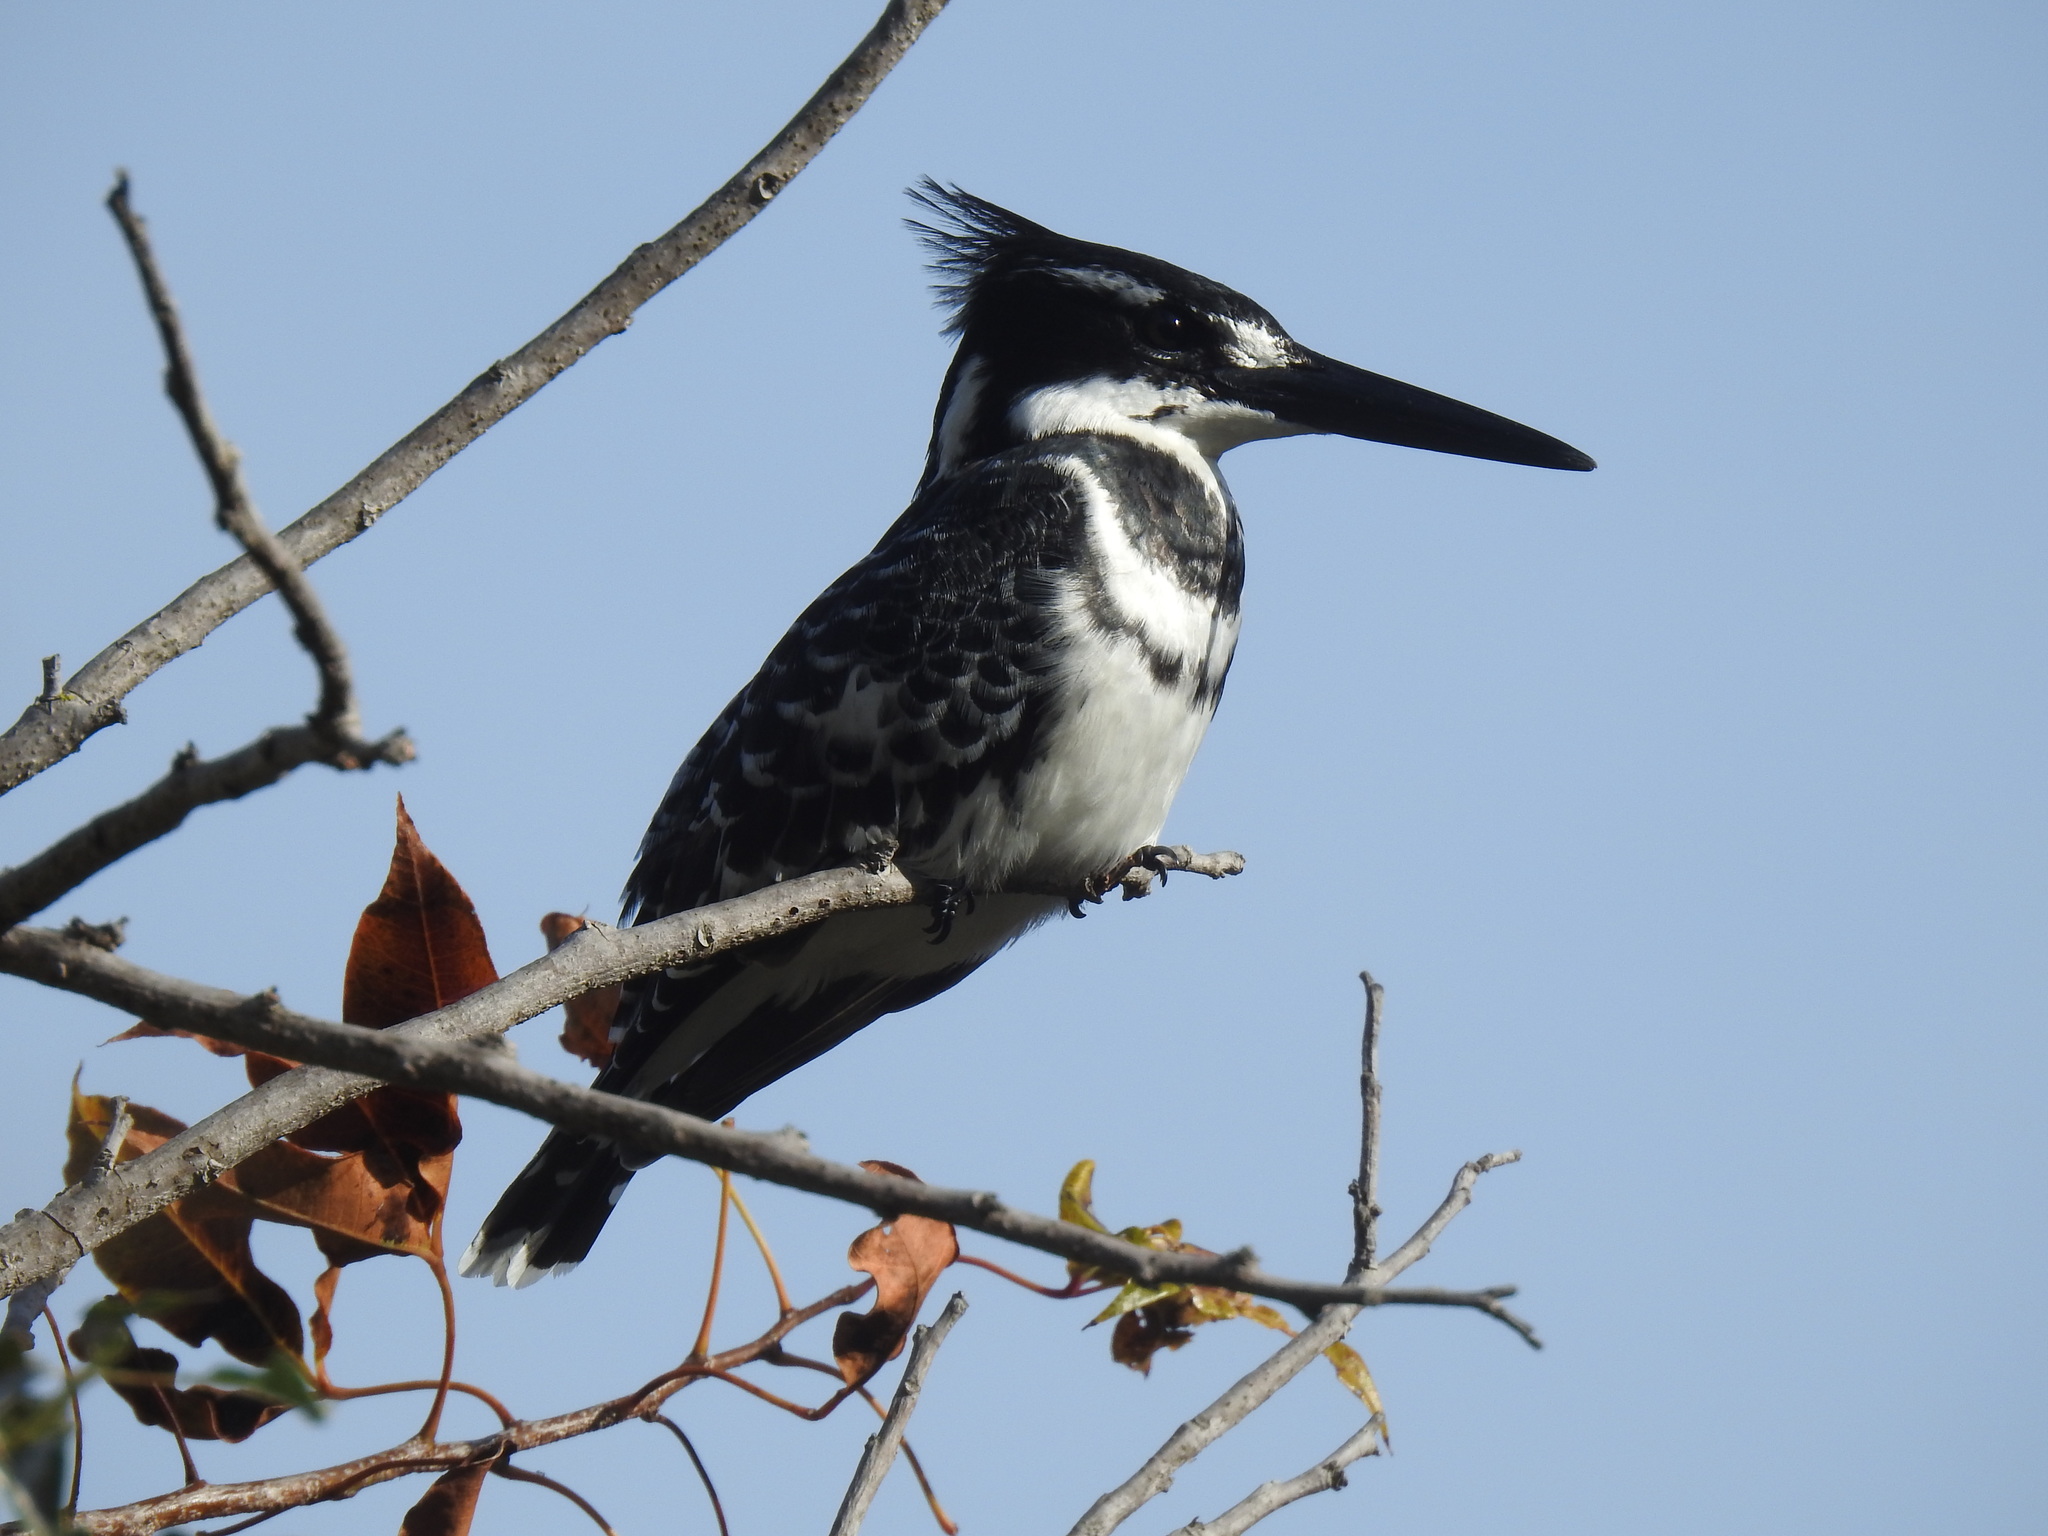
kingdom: Animalia
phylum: Chordata
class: Aves
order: Coraciiformes
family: Alcedinidae
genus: Ceryle
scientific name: Ceryle rudis
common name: Pied kingfisher
